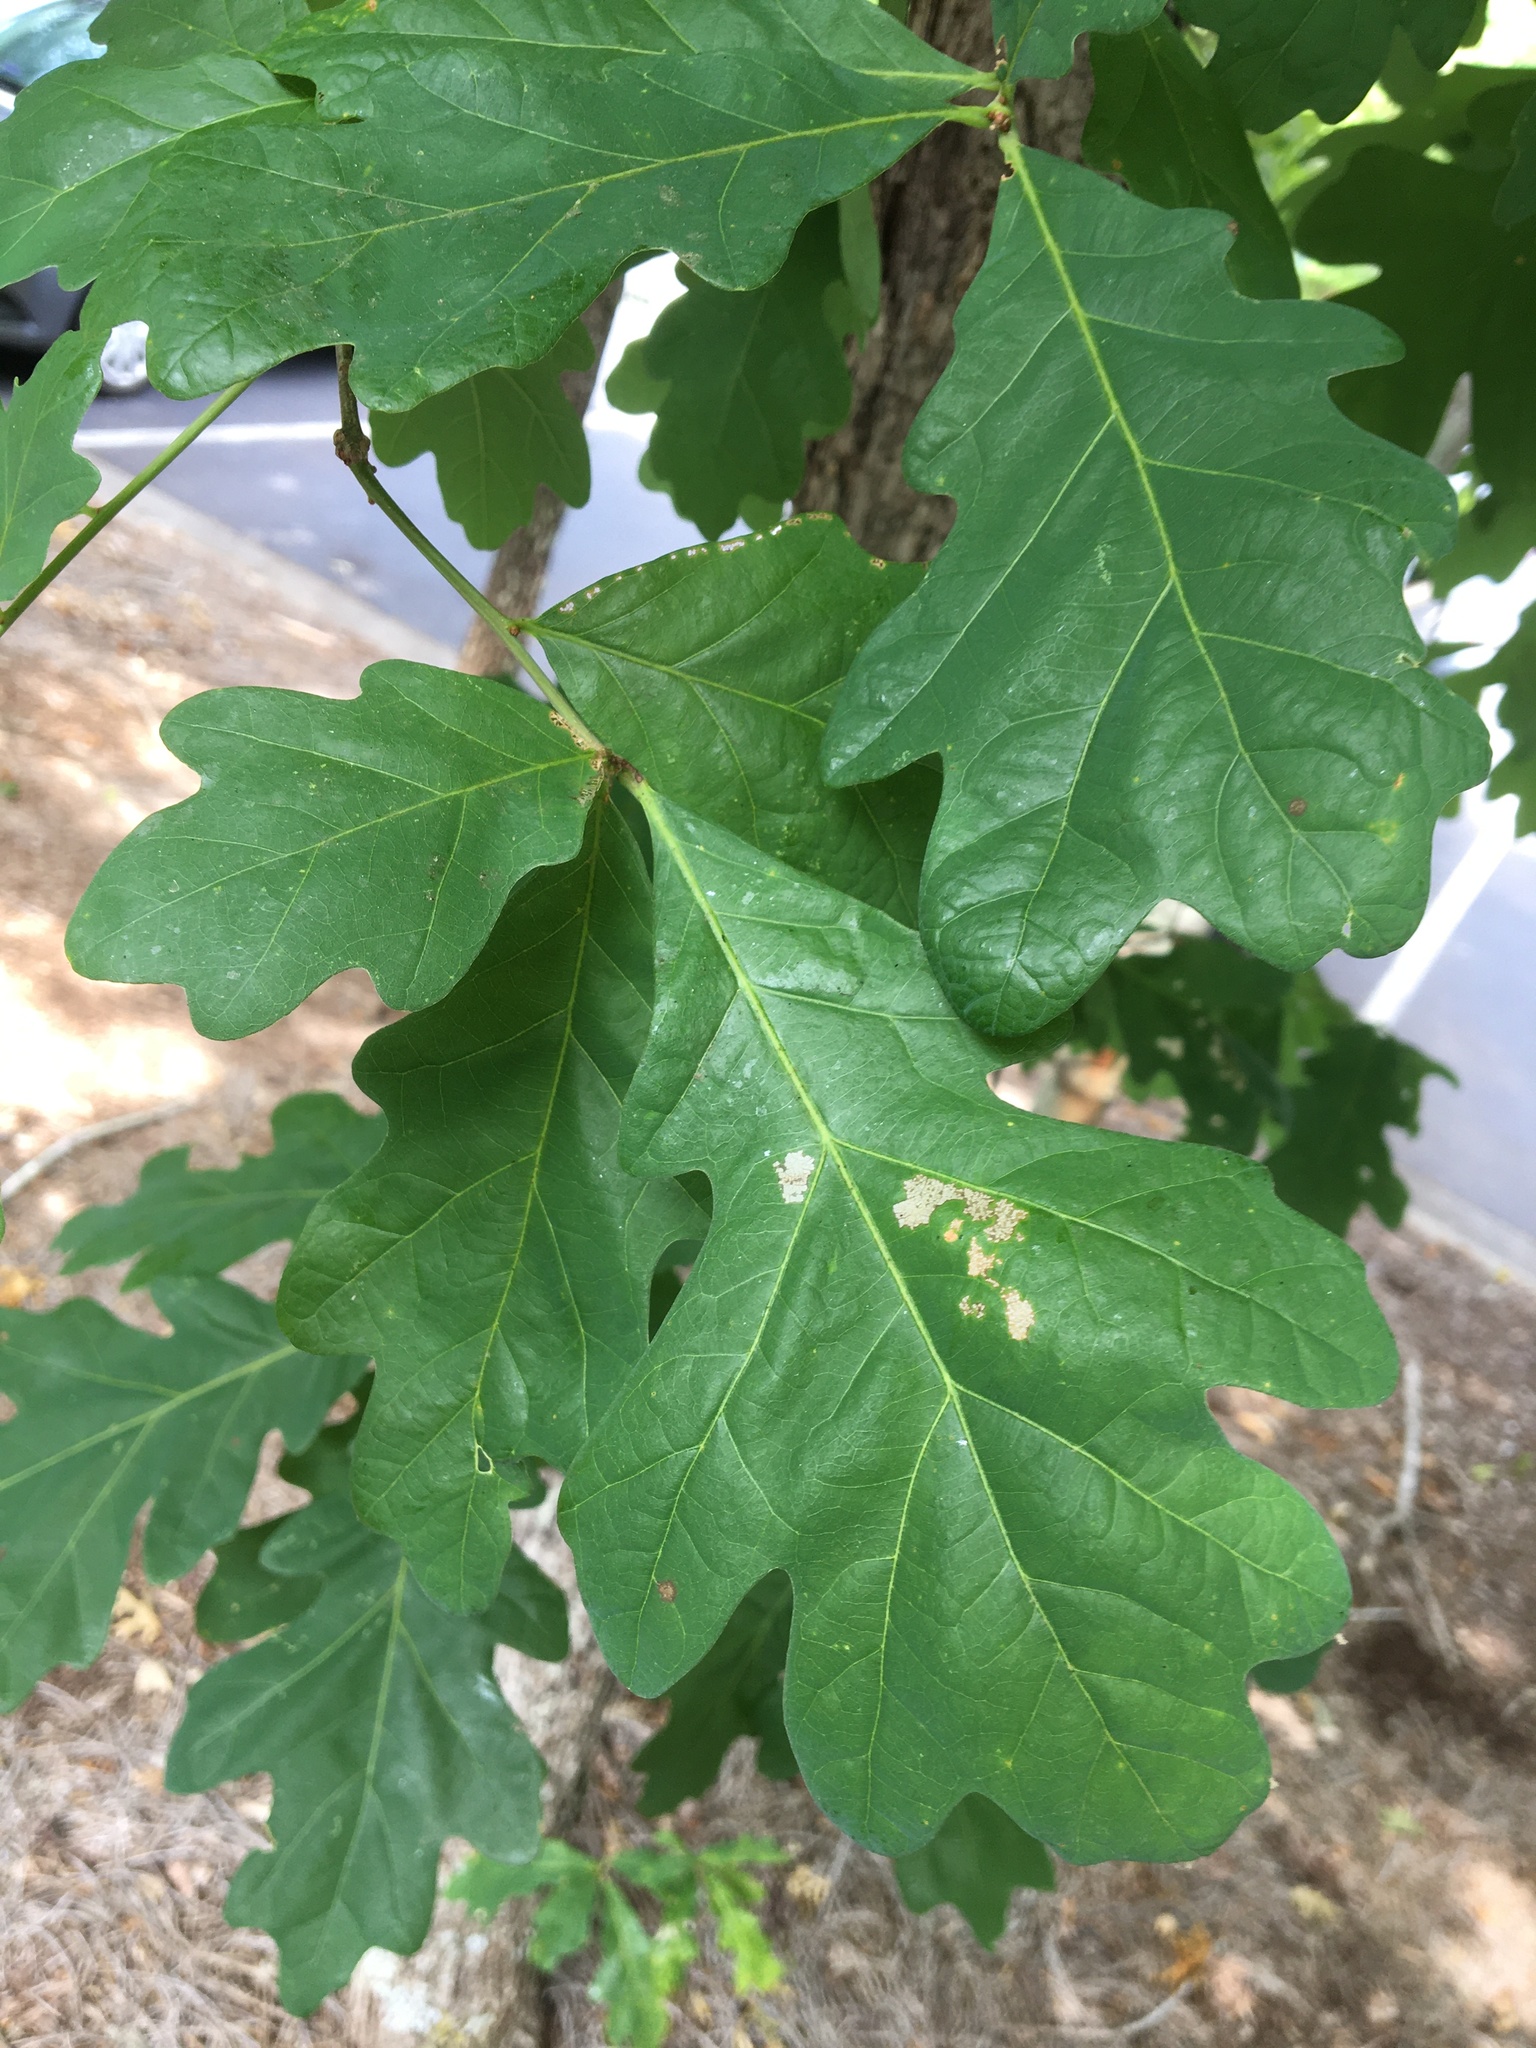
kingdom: Plantae
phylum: Tracheophyta
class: Magnoliopsida
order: Fagales
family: Fagaceae
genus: Quercus
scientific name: Quercus alba
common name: White oak
